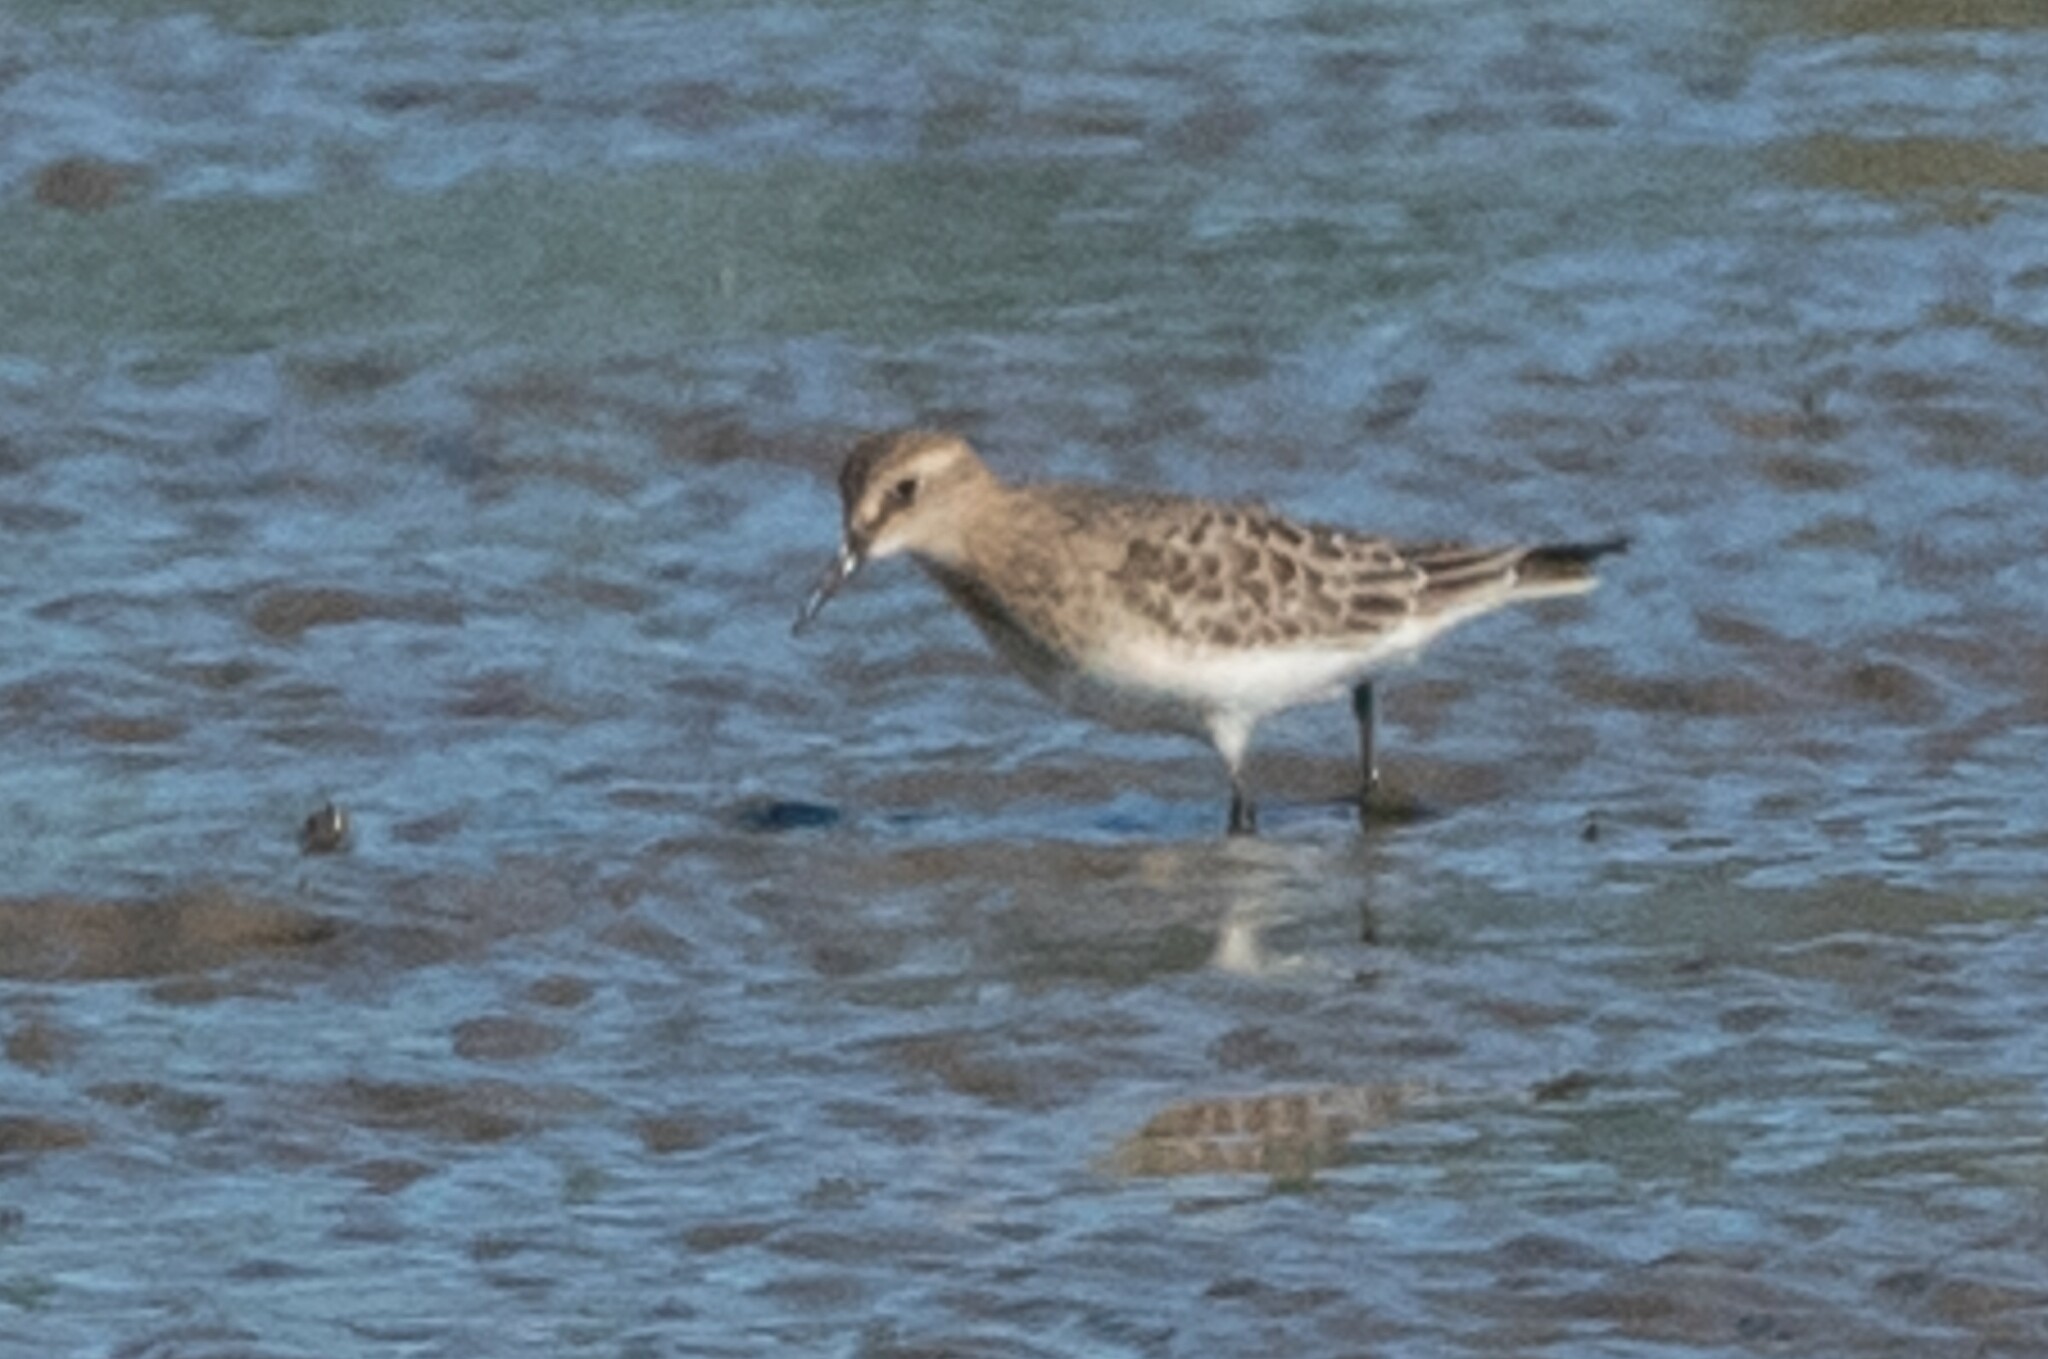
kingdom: Animalia
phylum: Chordata
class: Aves
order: Charadriiformes
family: Scolopacidae
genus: Calidris
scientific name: Calidris bairdii
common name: Baird's sandpiper
